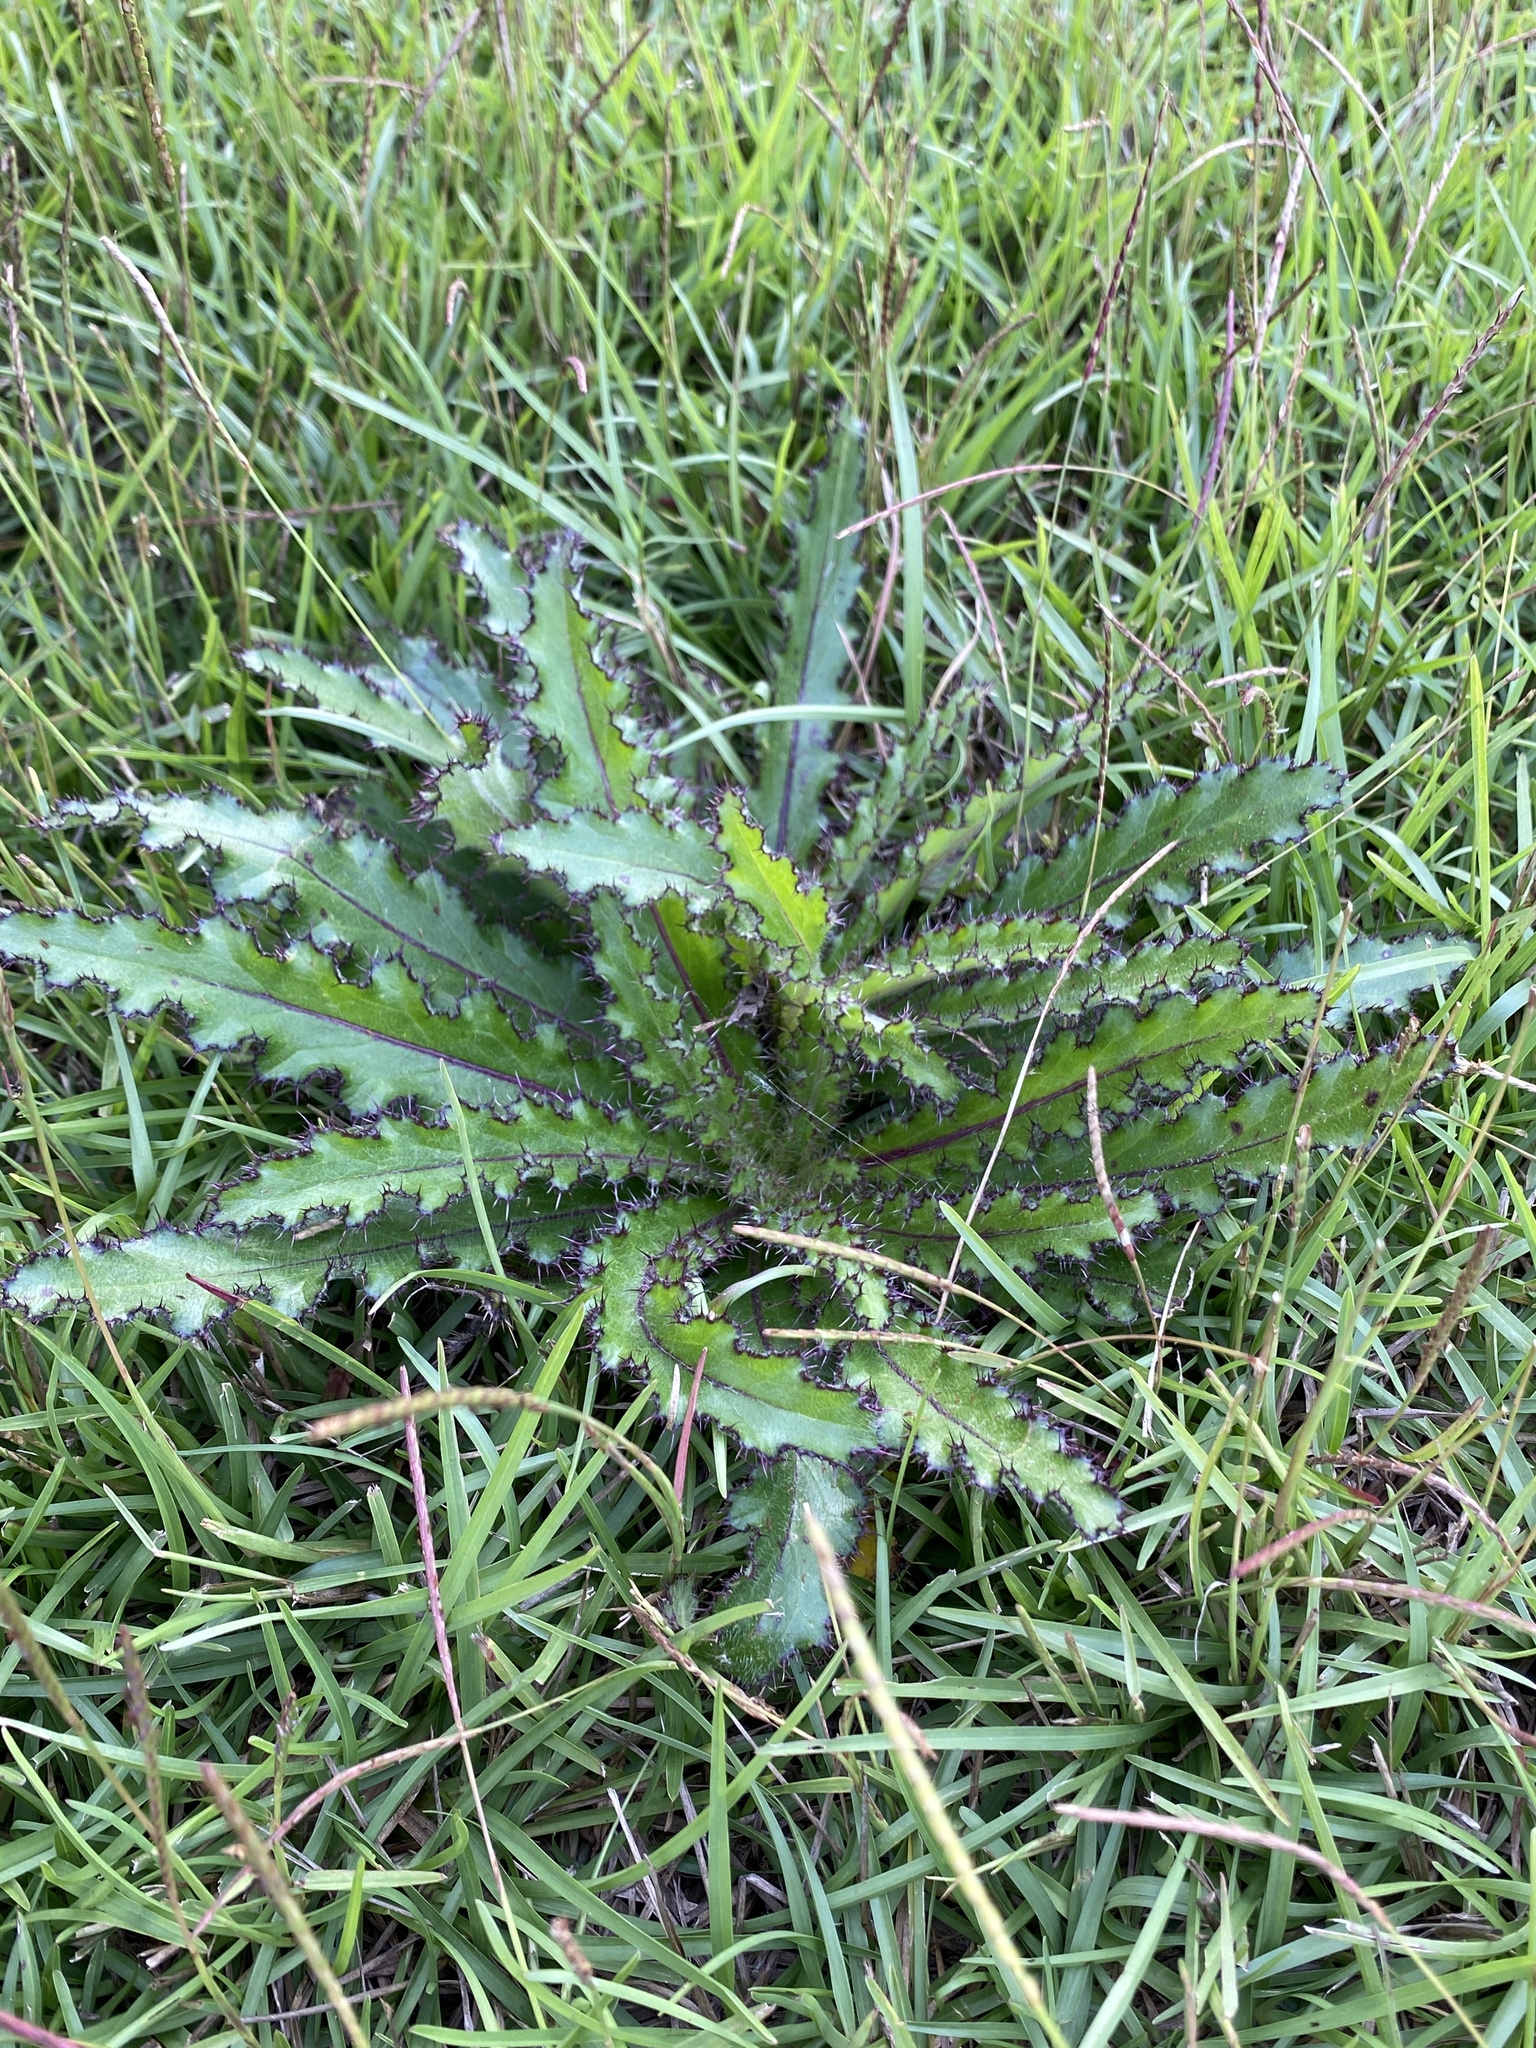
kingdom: Plantae
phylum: Tracheophyta
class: Magnoliopsida
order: Asterales
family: Asteraceae
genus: Cirsium
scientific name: Cirsium horridulum
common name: Bristly thistle
